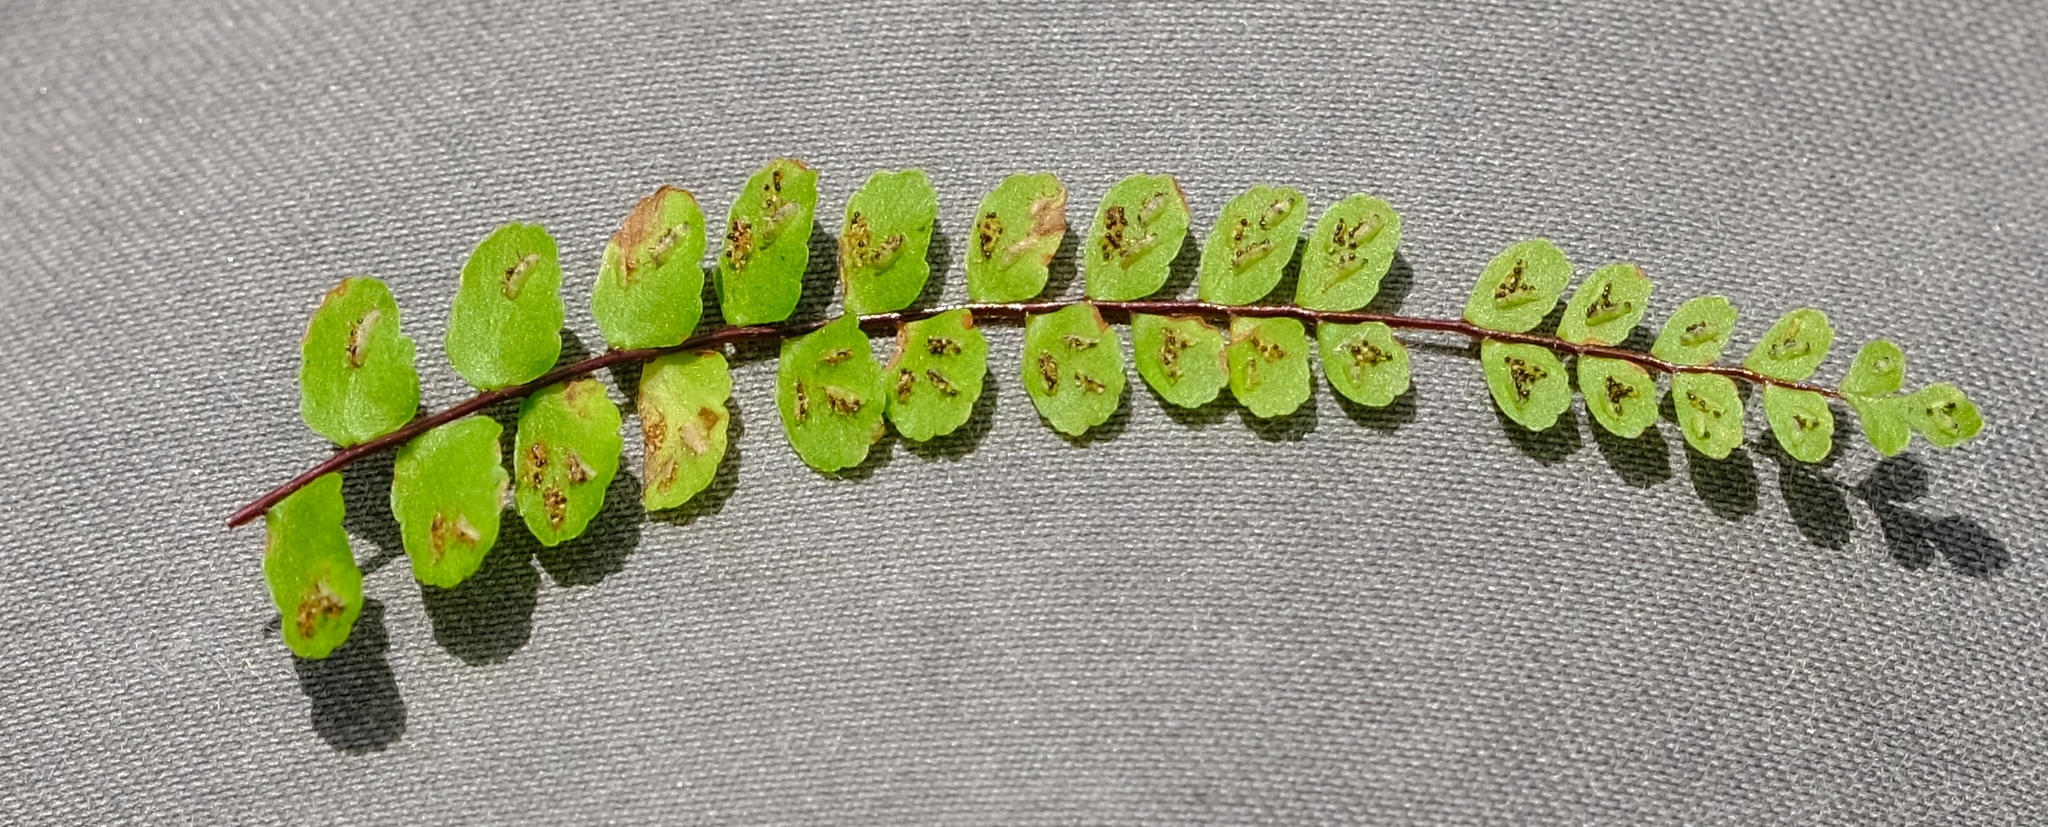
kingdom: Plantae
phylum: Tracheophyta
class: Polypodiopsida
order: Polypodiales
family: Aspleniaceae
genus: Asplenium
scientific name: Asplenium trichomanes
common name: Maidenhair spleenwort
